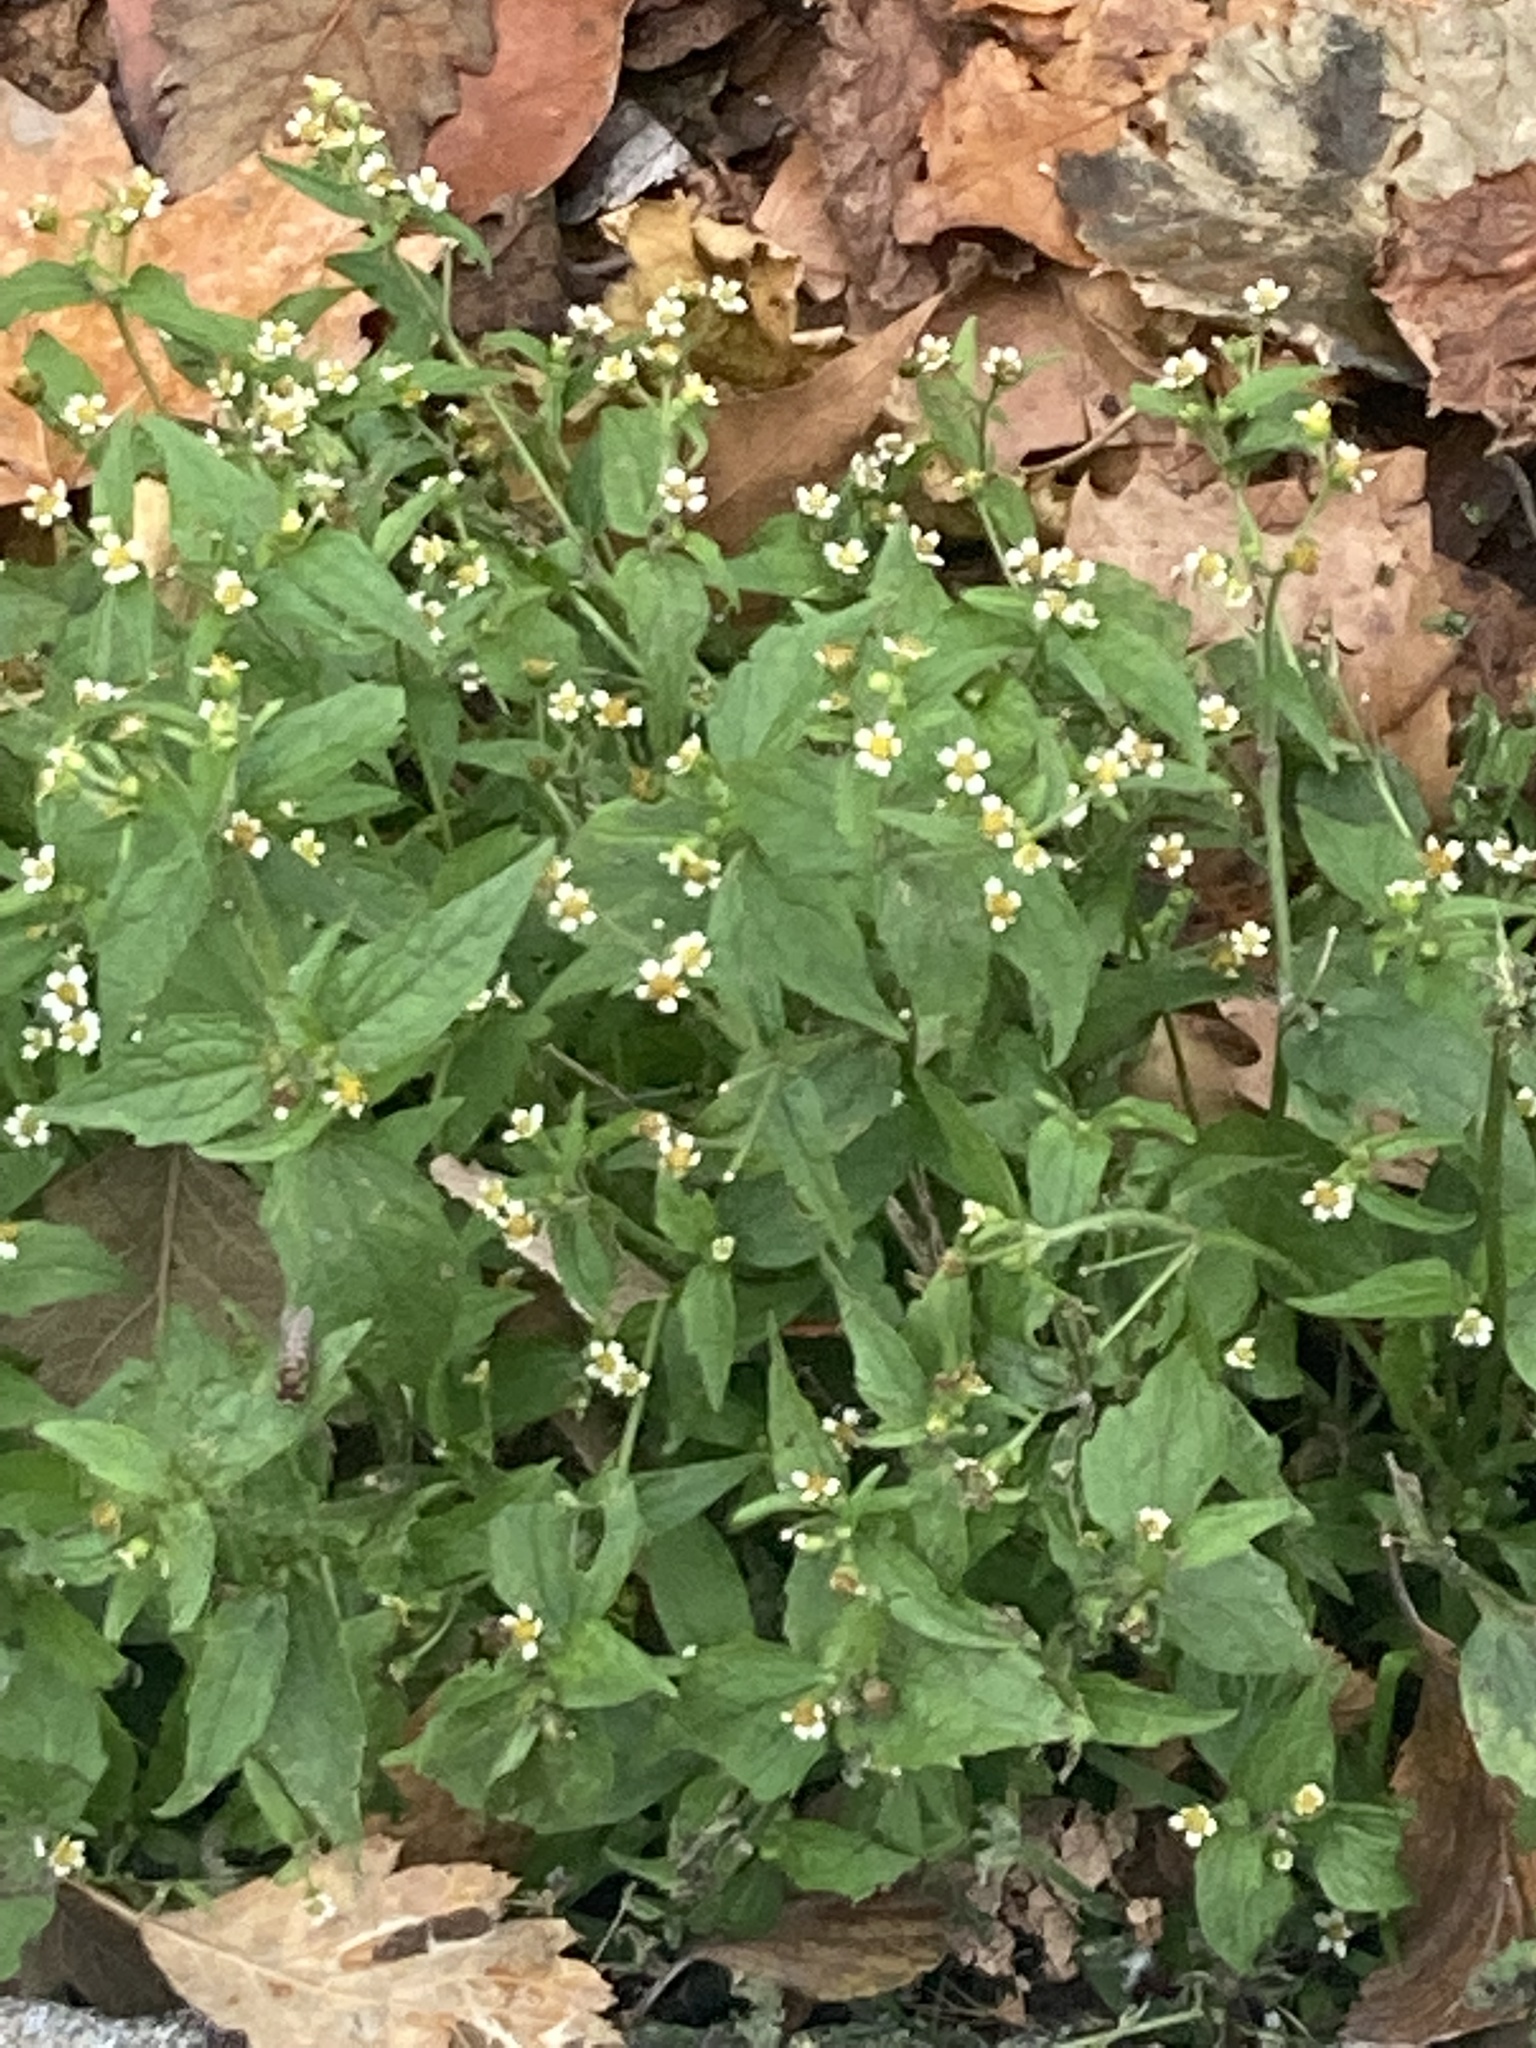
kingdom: Plantae
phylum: Tracheophyta
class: Magnoliopsida
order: Asterales
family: Asteraceae
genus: Galinsoga
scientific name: Galinsoga quadriradiata
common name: Shaggy soldier
